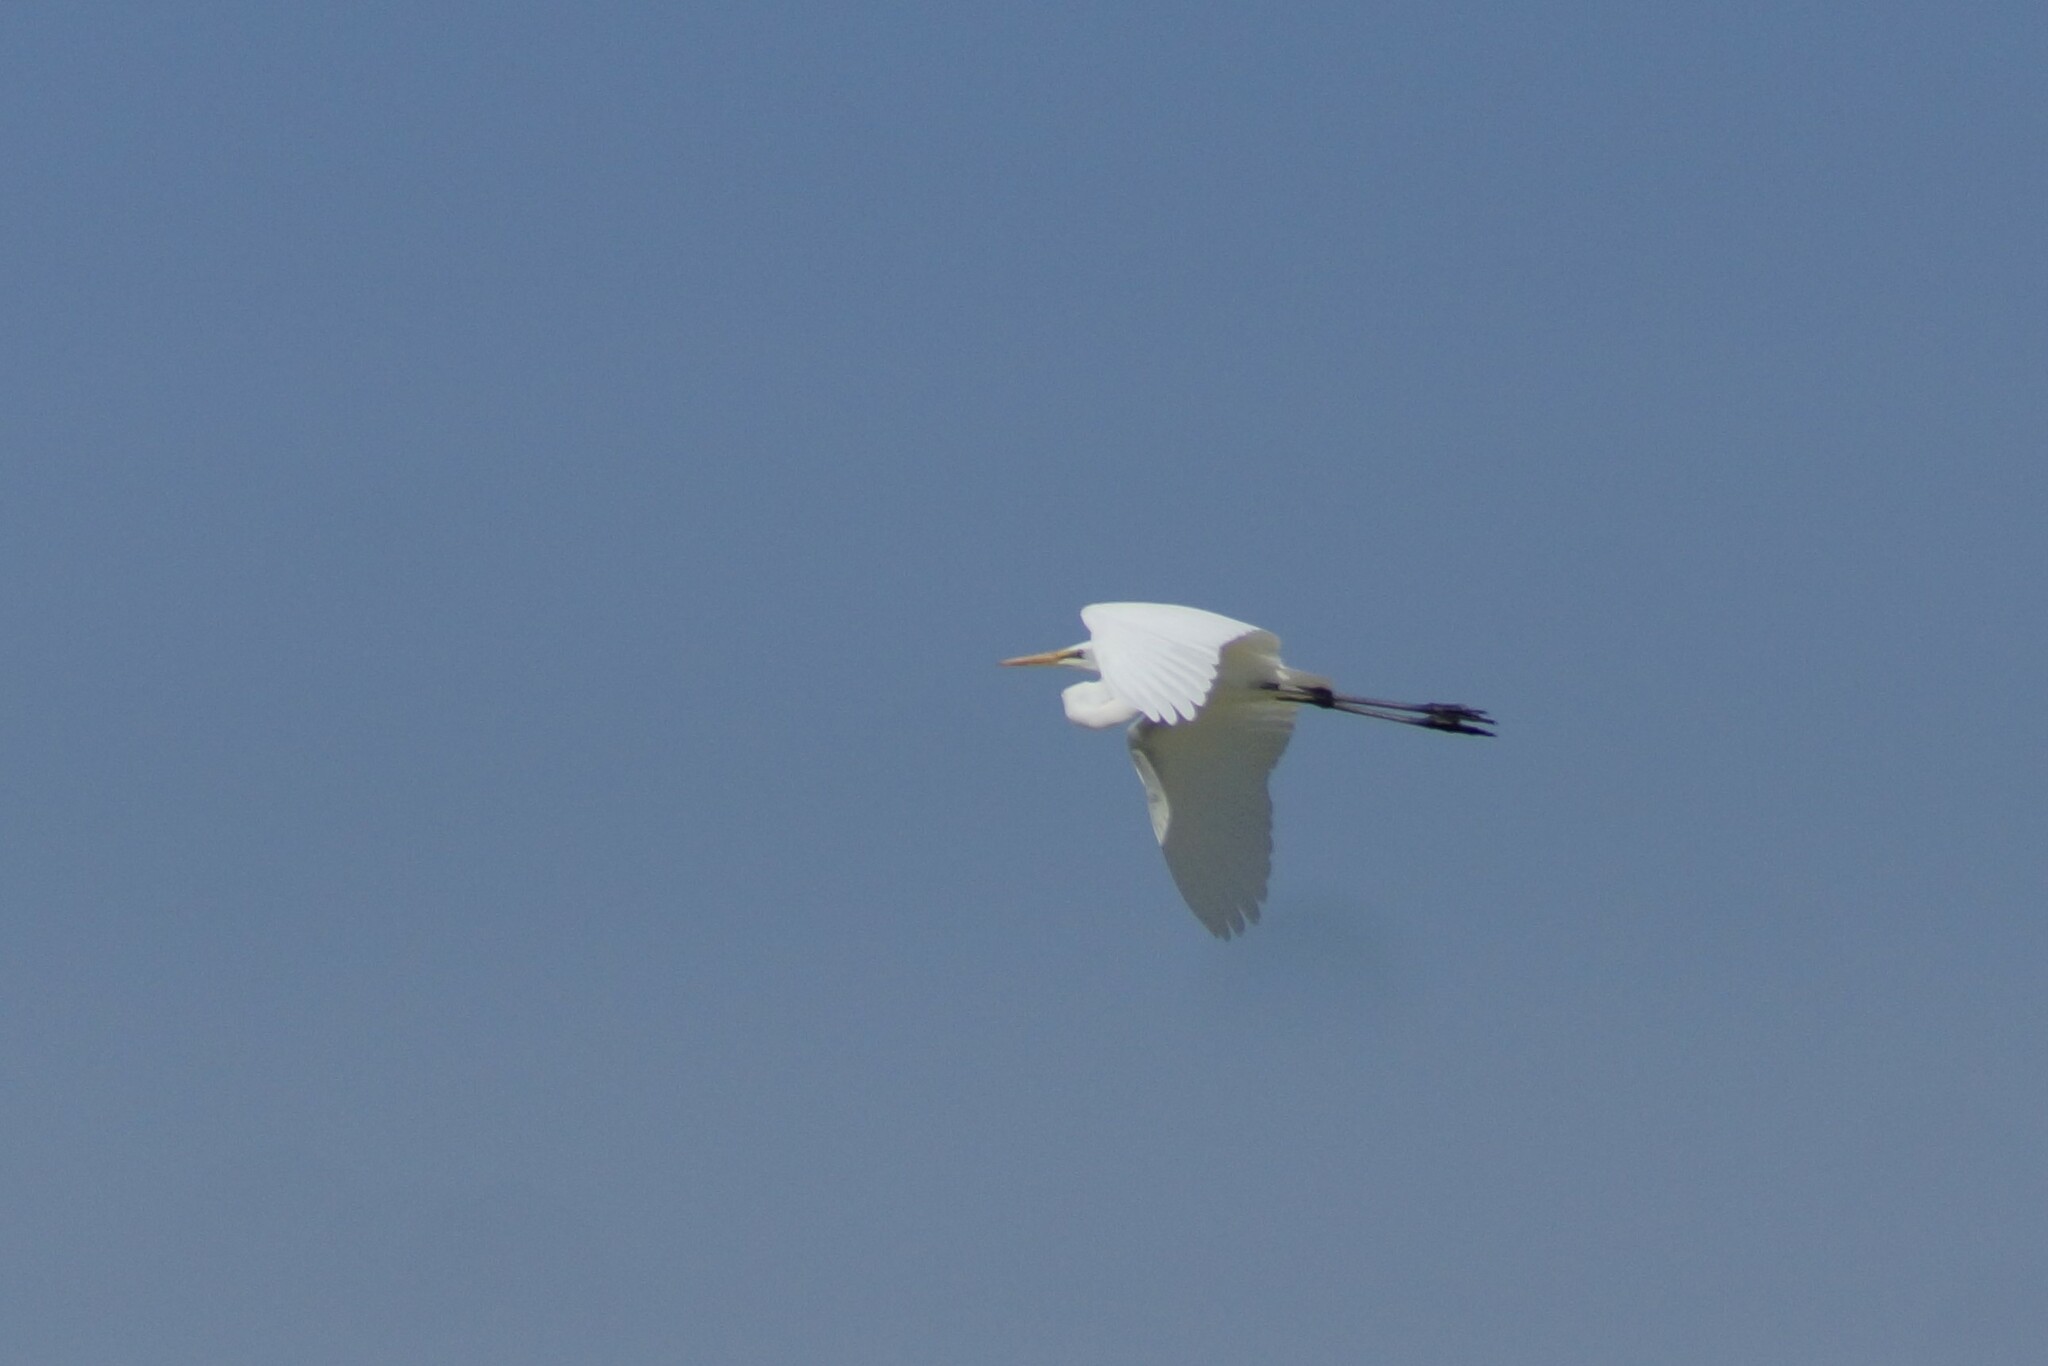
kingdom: Animalia
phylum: Chordata
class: Aves
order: Pelecaniformes
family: Ardeidae
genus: Ardea
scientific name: Ardea alba
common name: Great egret
